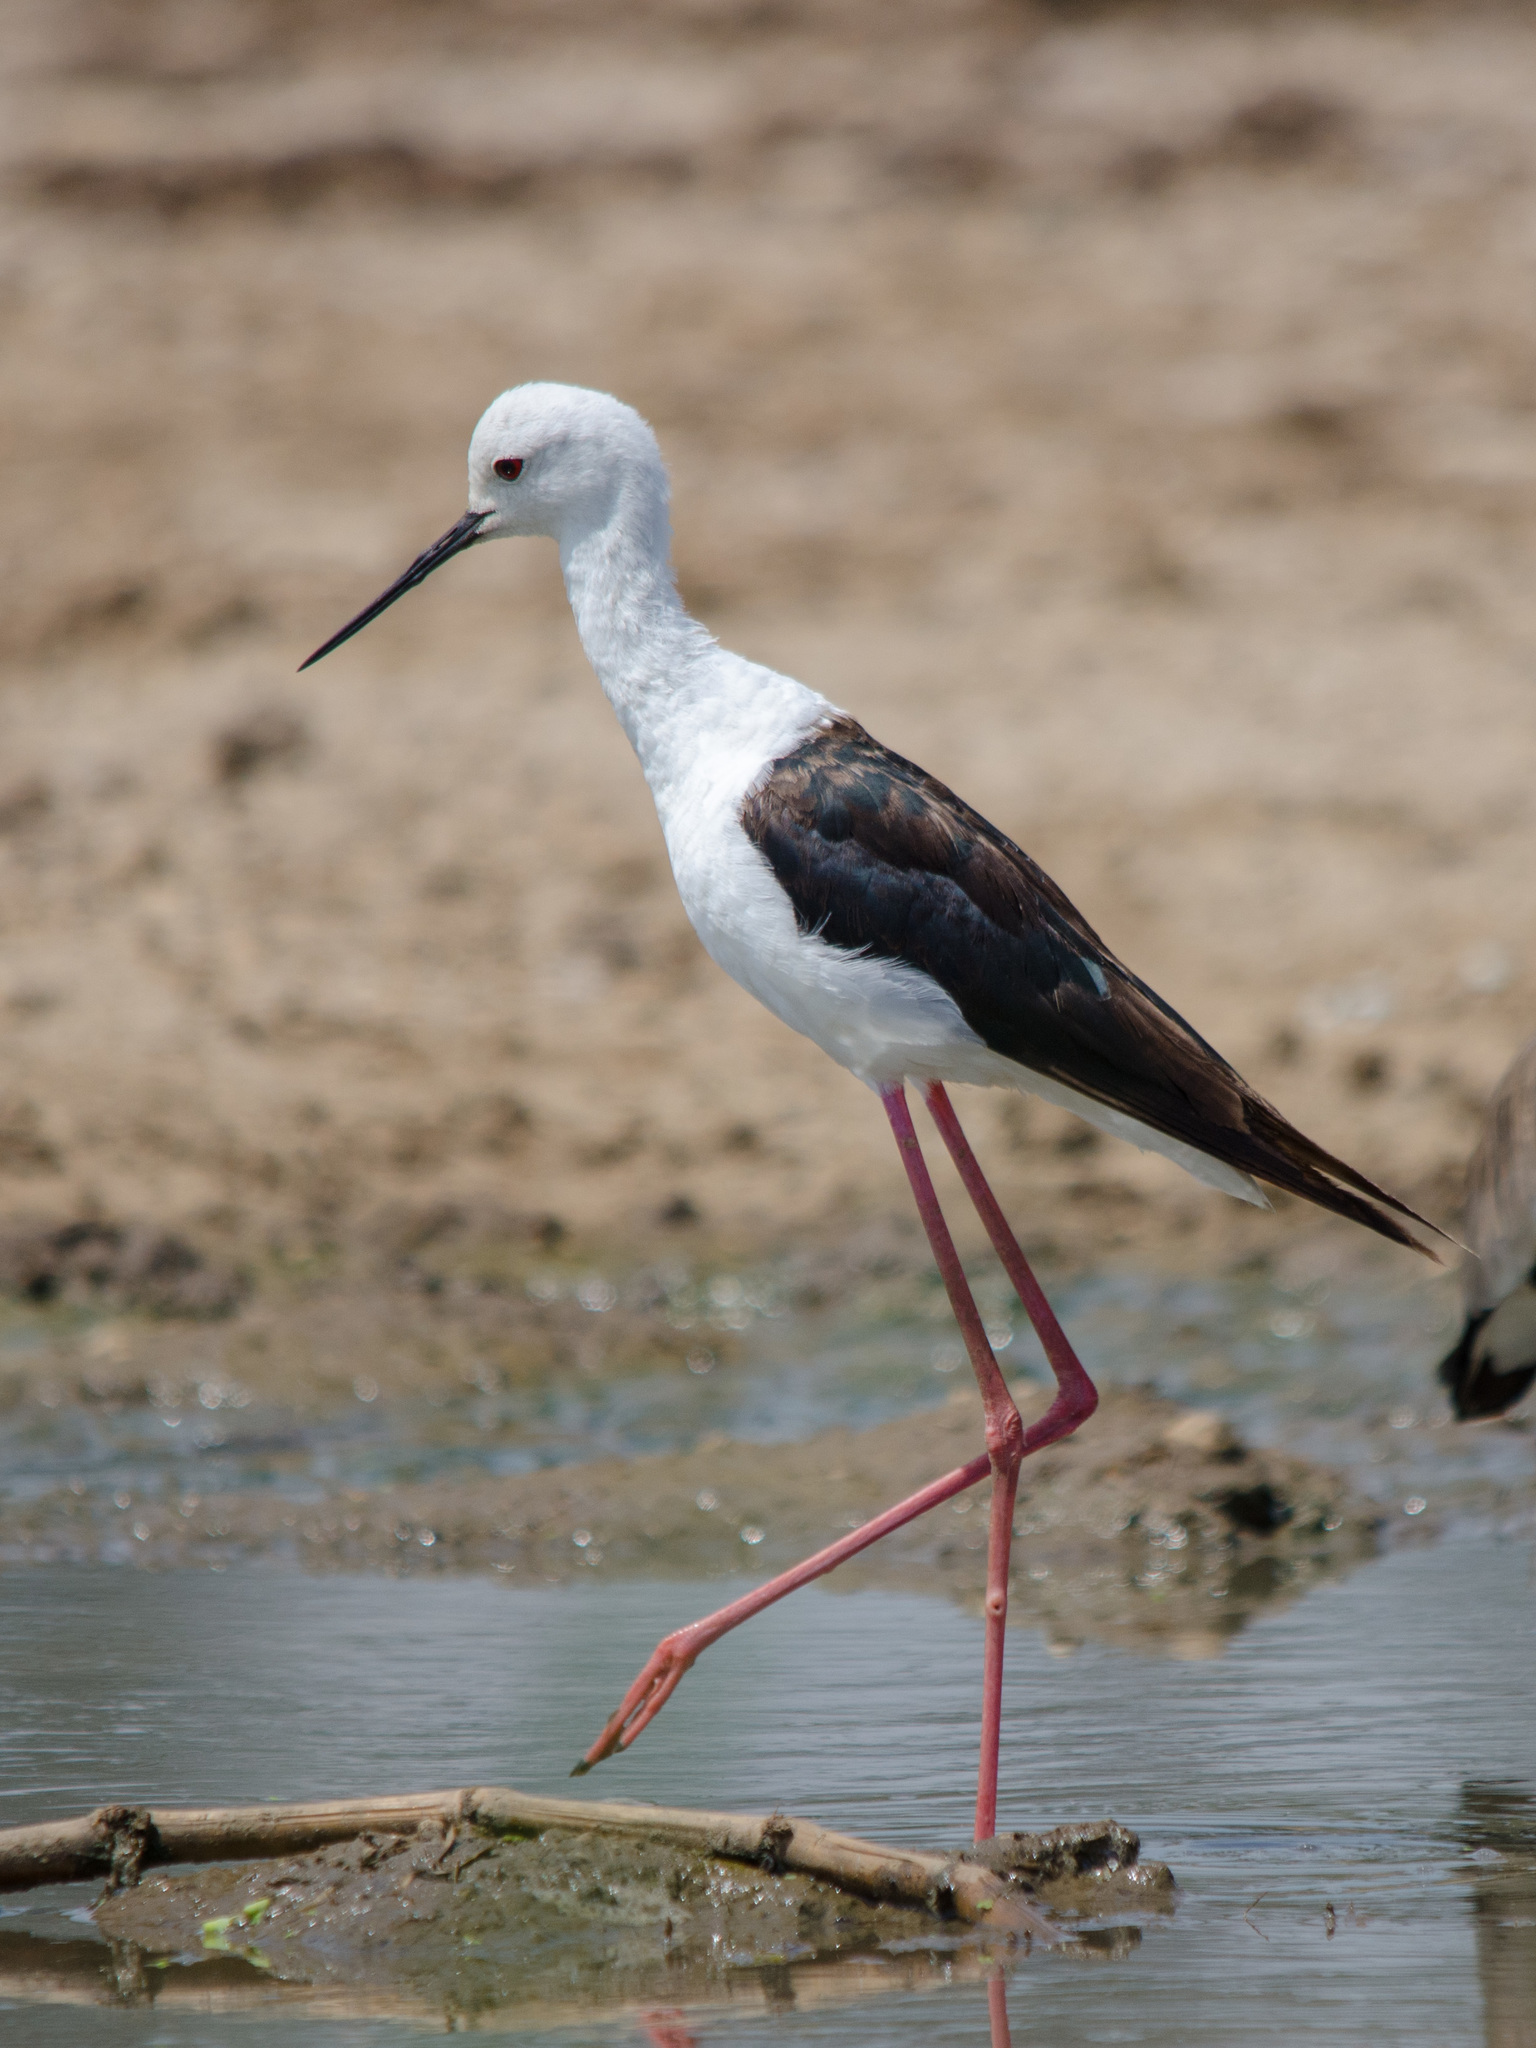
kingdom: Animalia
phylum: Chordata
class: Aves
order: Charadriiformes
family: Recurvirostridae
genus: Himantopus
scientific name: Himantopus himantopus
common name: Black-winged stilt
